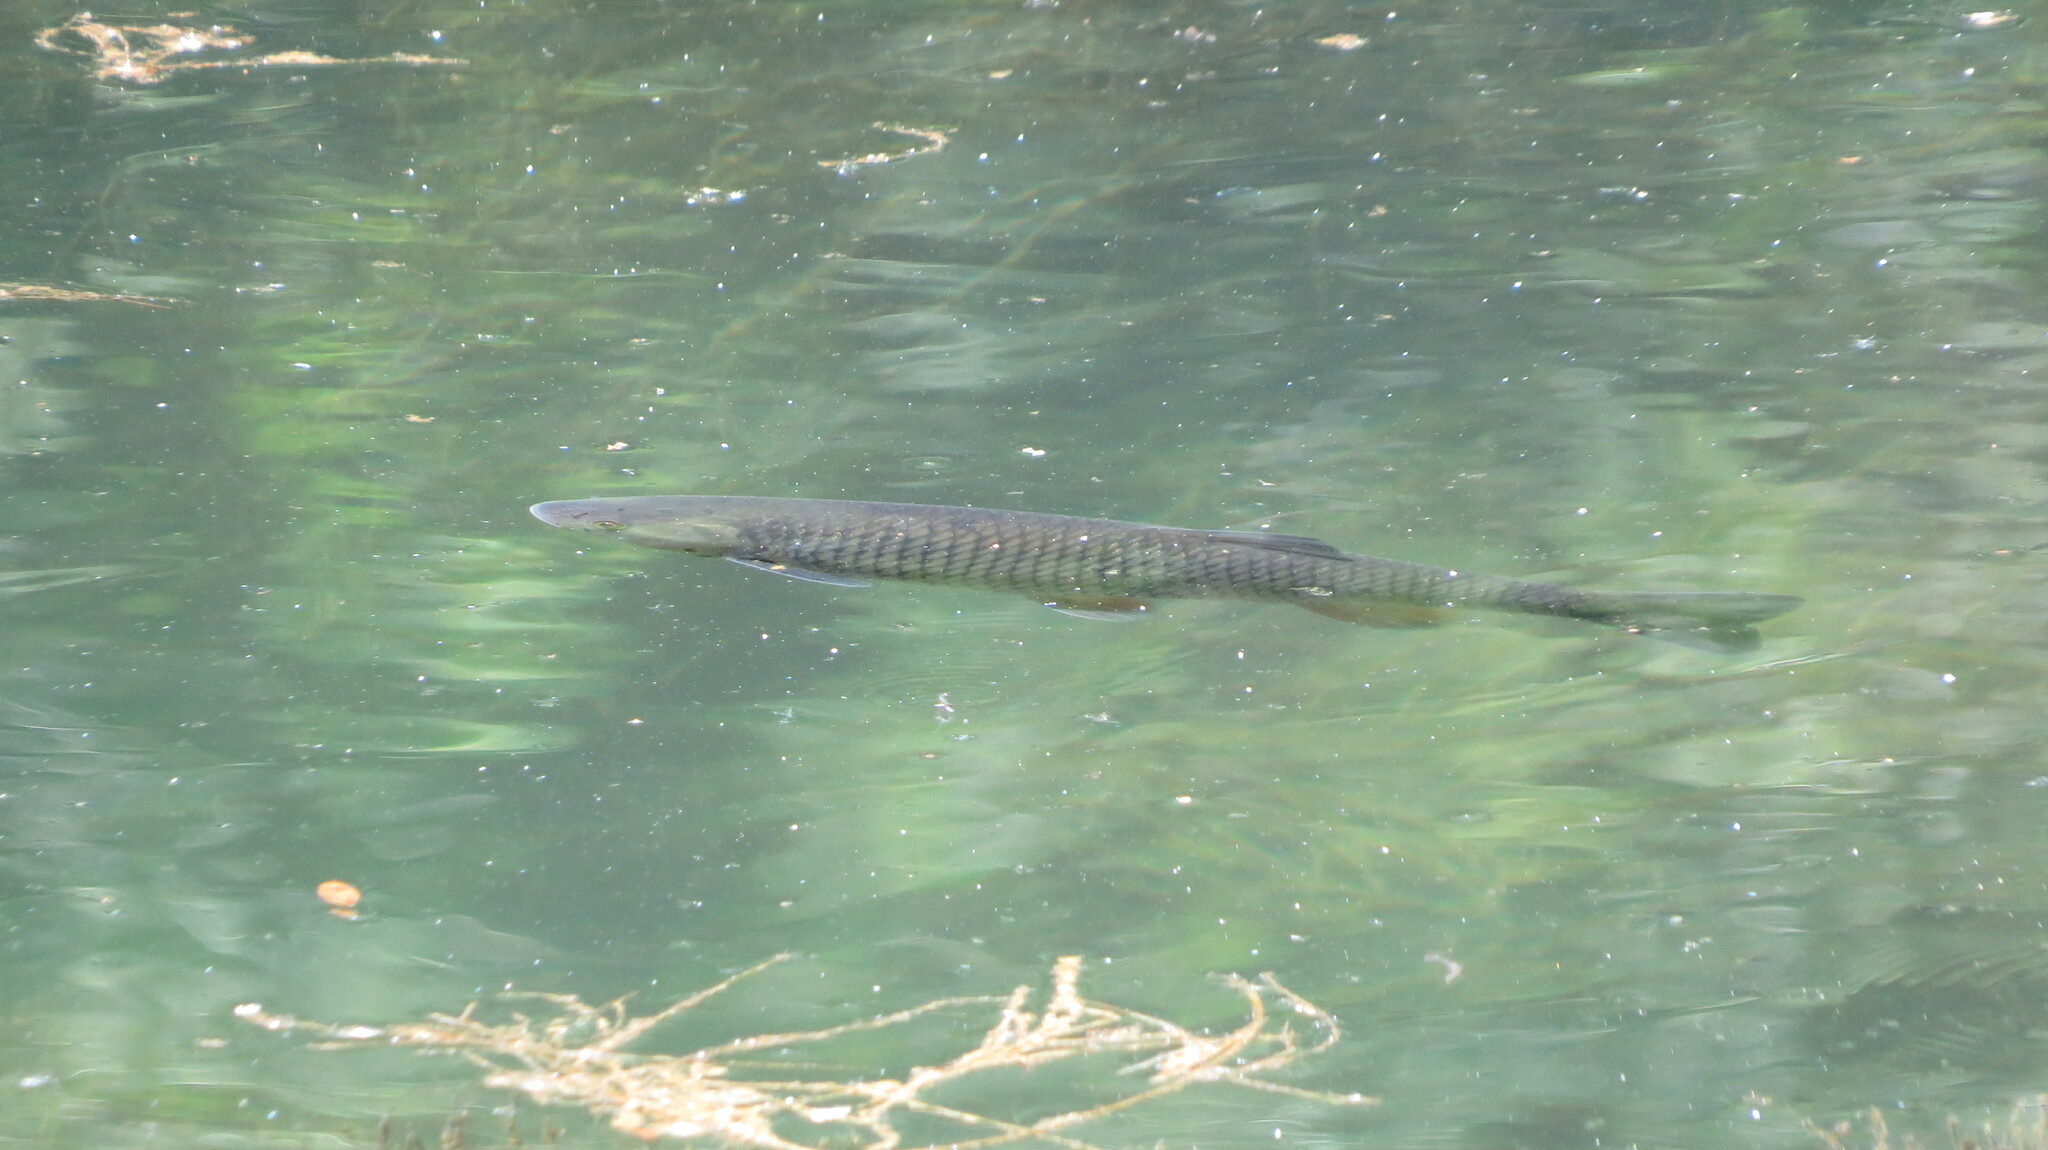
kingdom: Animalia
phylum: Chordata
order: Cypriniformes
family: Cyprinidae
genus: Squalius
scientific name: Squalius cephalus
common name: Chub
